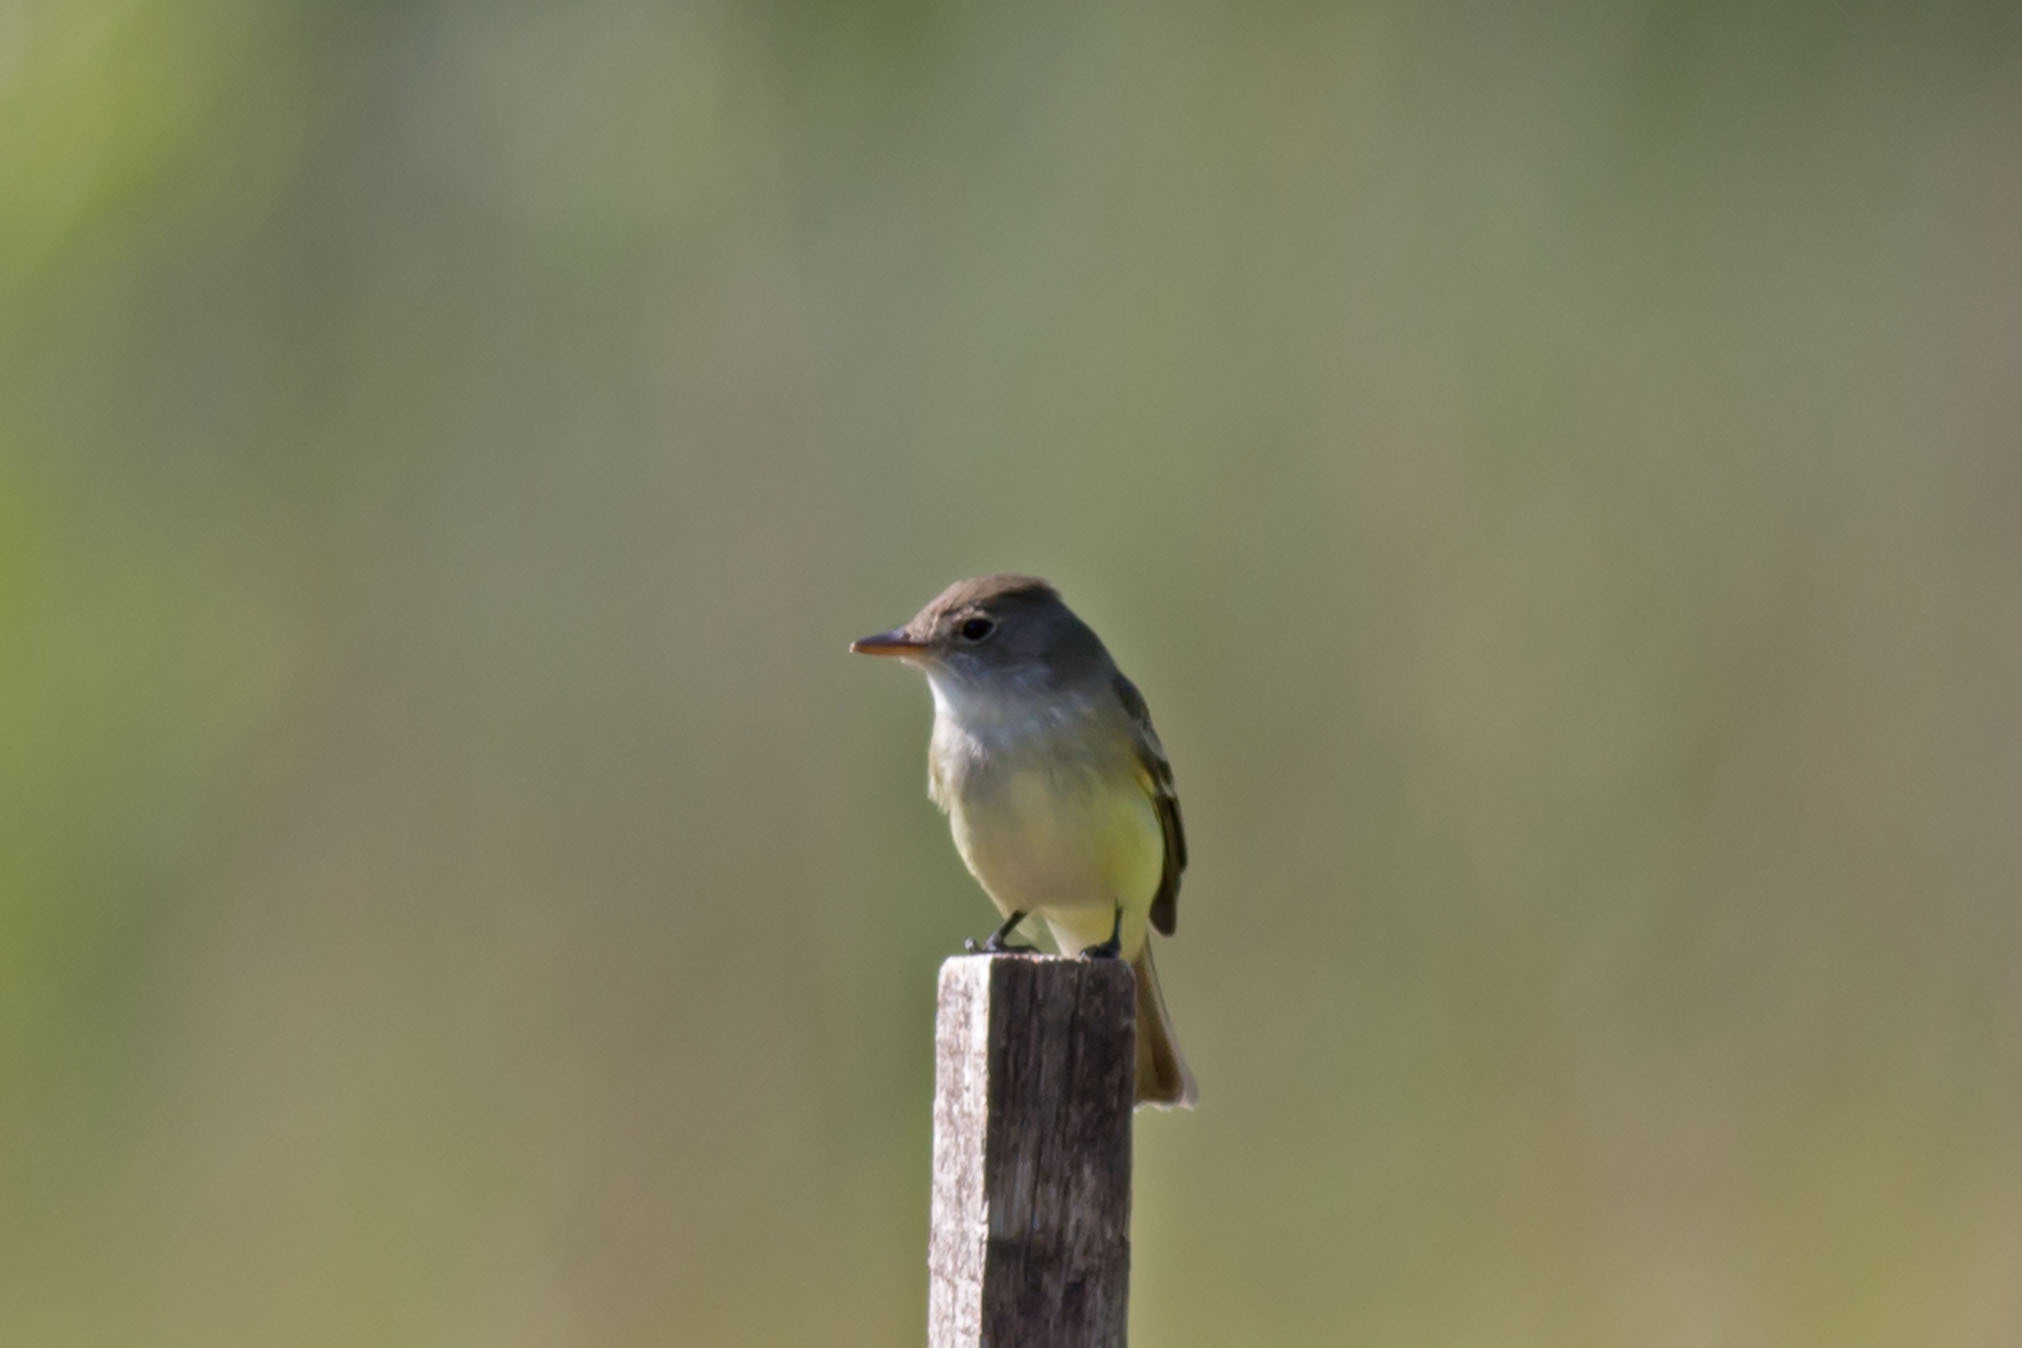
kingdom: Animalia
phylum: Chordata
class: Aves
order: Passeriformes
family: Tyrannidae
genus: Empidonax
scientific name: Empidonax traillii
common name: Willow flycatcher
